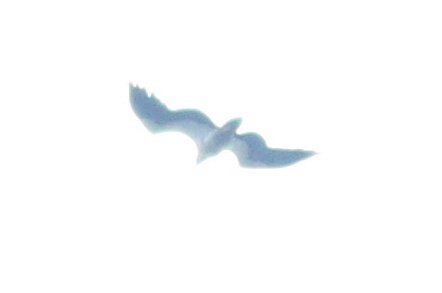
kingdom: Animalia
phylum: Chordata
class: Aves
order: Accipitriformes
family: Accipitridae
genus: Haliaeetus
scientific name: Haliaeetus leucogaster
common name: White-bellied sea eagle
